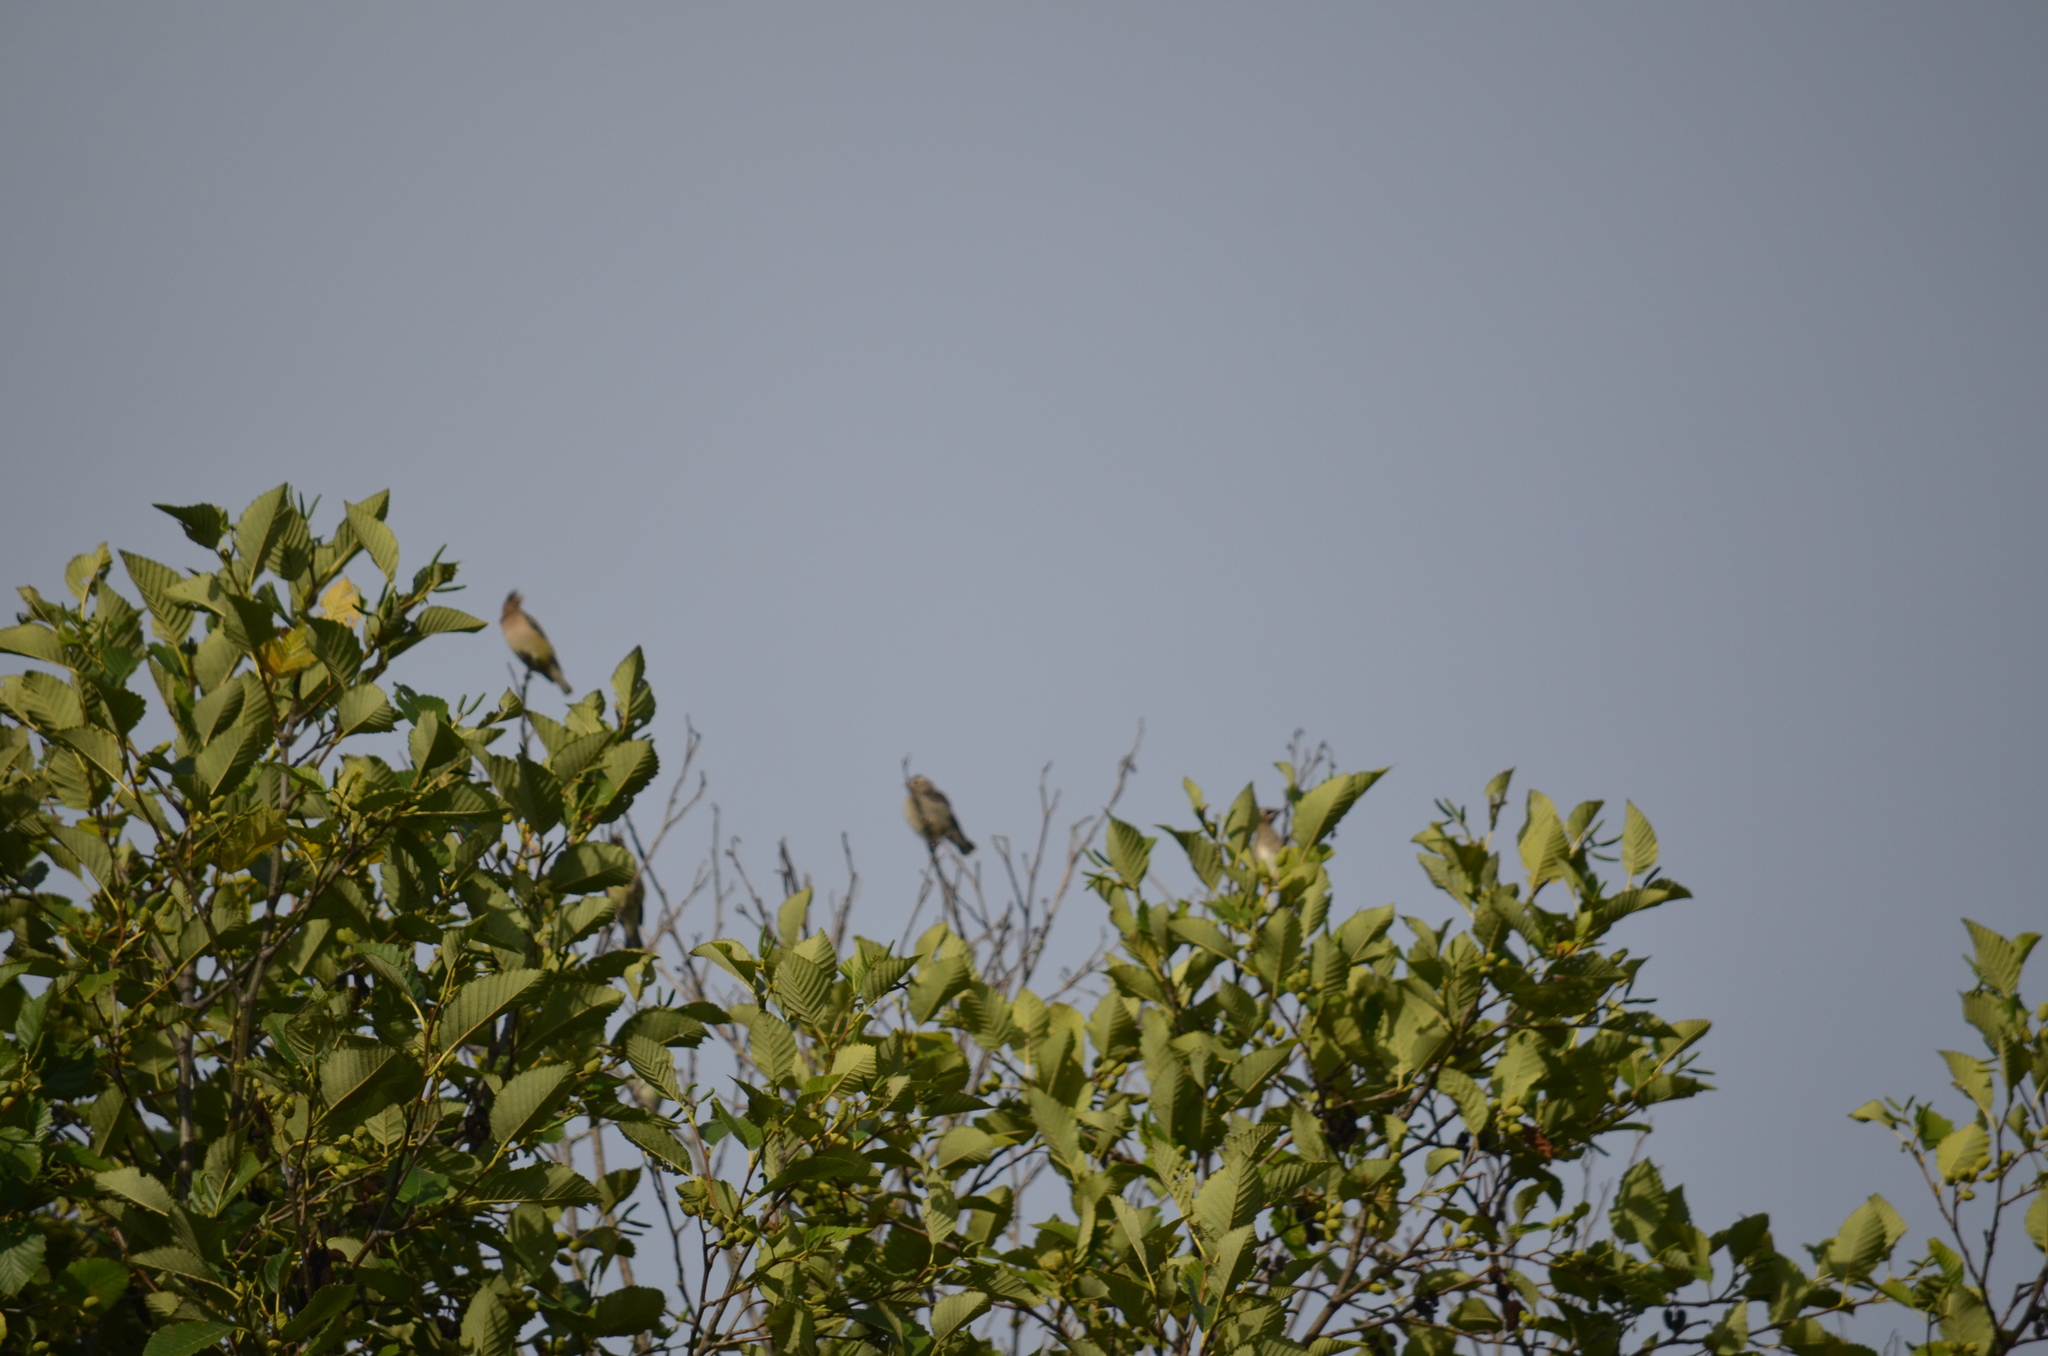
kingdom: Animalia
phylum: Chordata
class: Aves
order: Passeriformes
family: Bombycillidae
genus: Bombycilla
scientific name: Bombycilla cedrorum
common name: Cedar waxwing
